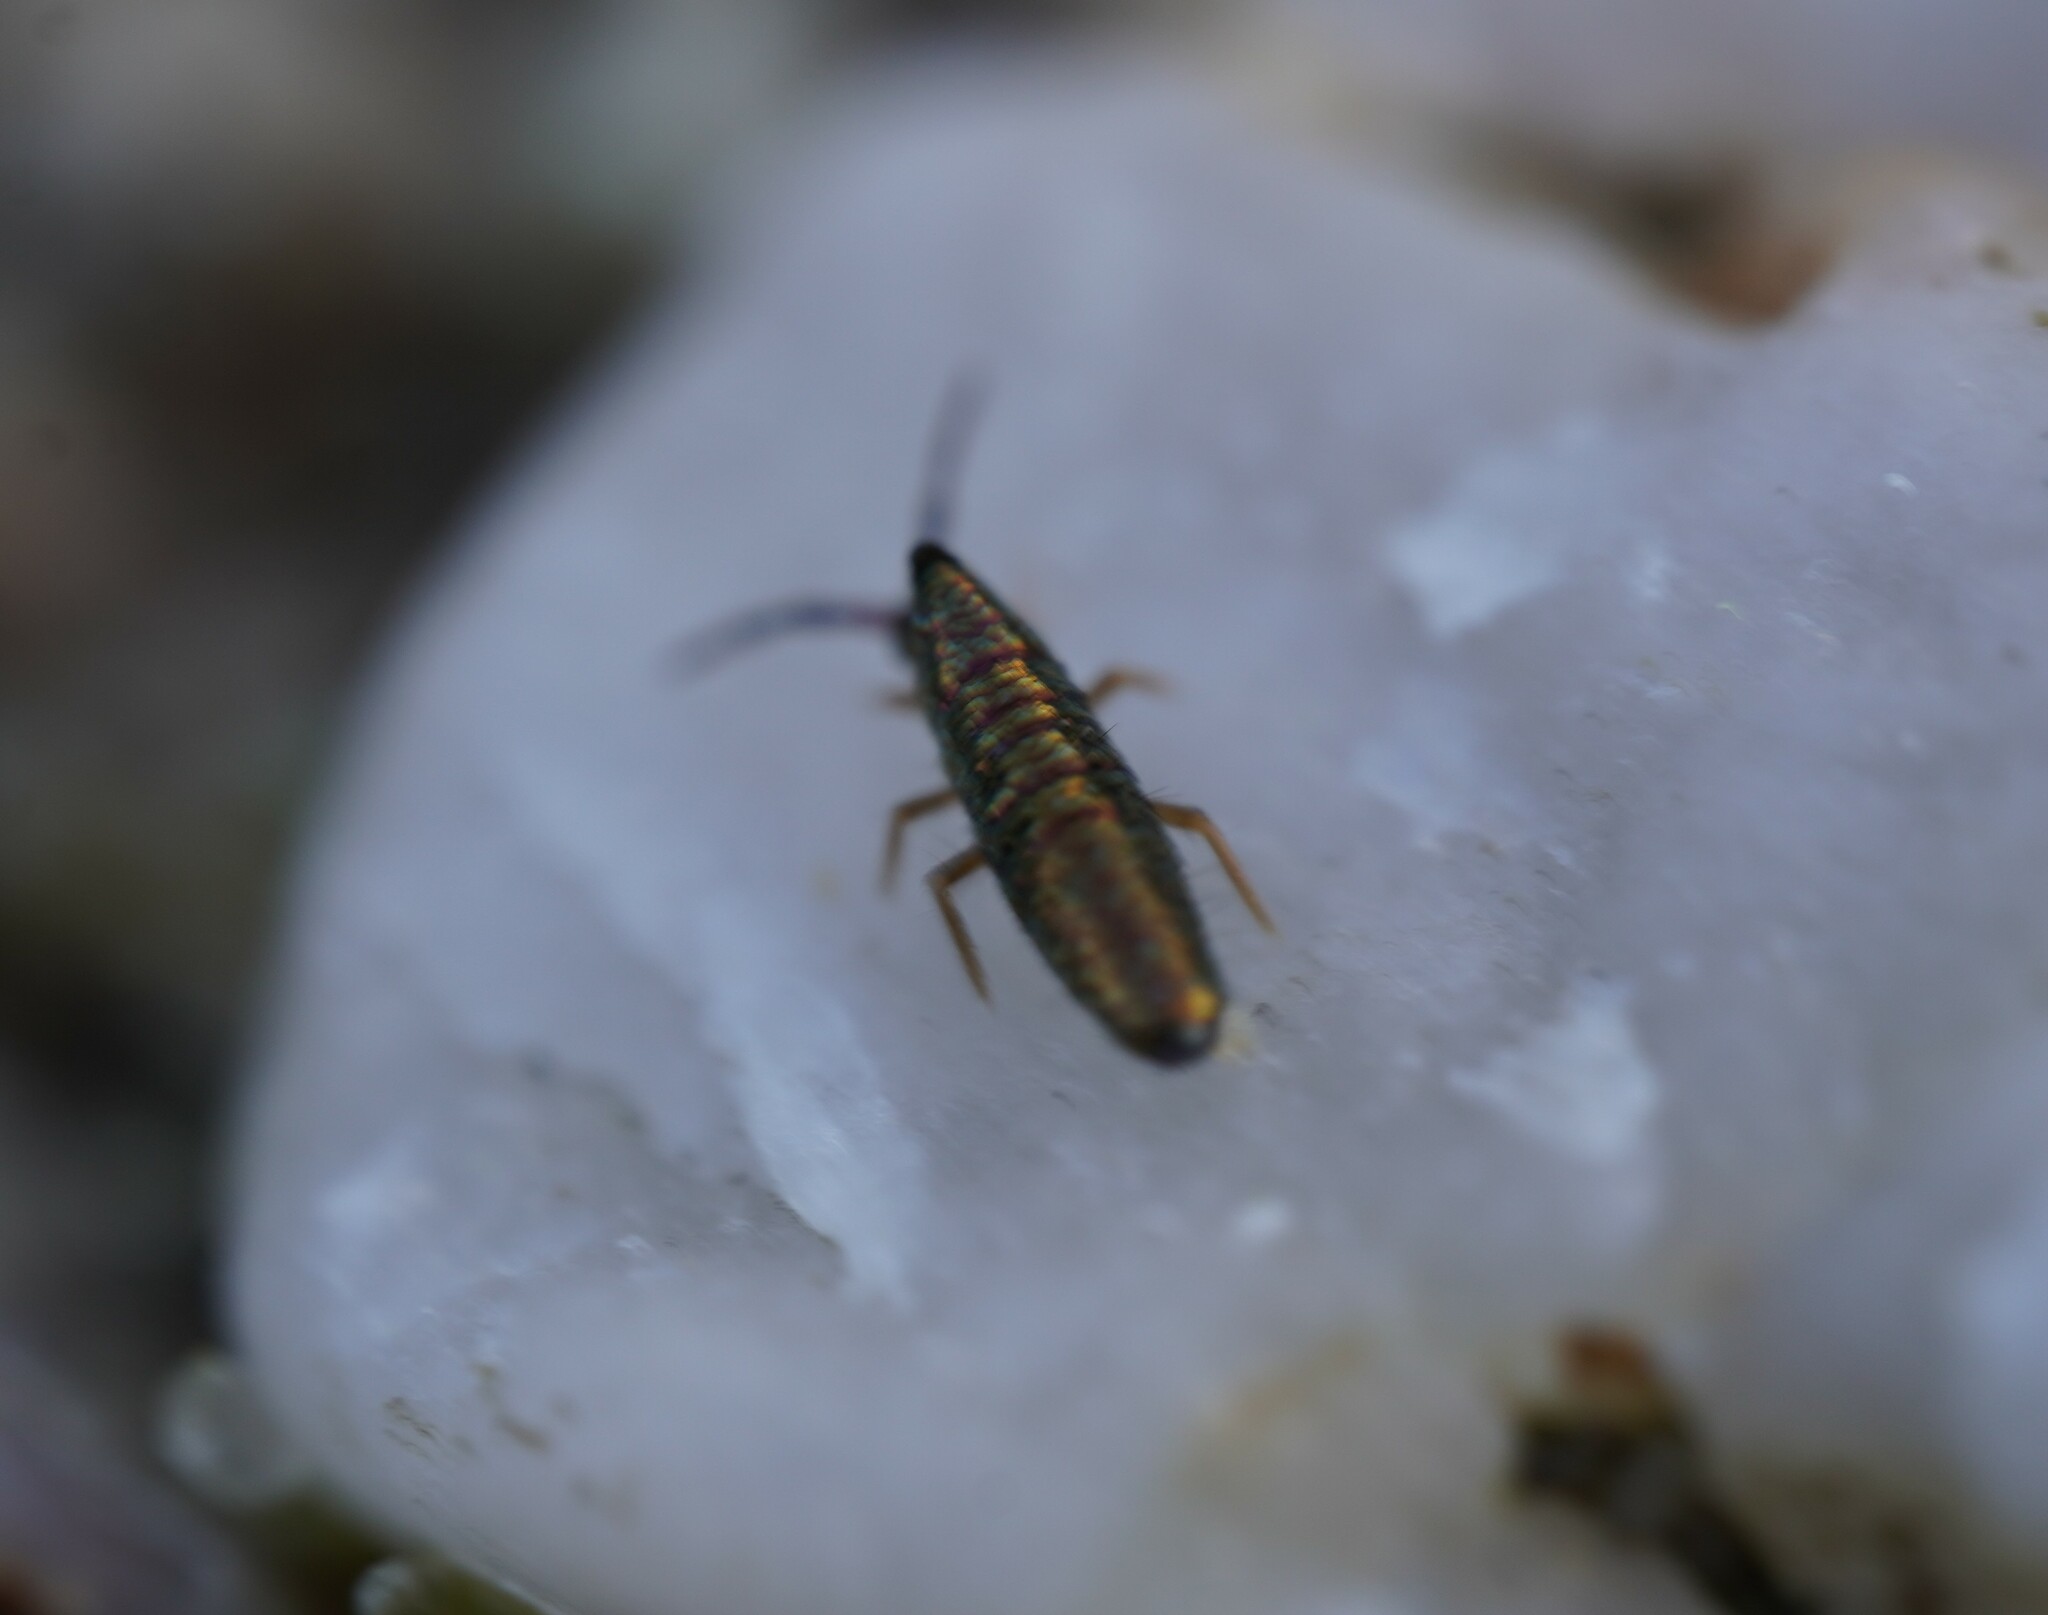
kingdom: Animalia
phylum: Arthropoda
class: Collembola
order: Entomobryomorpha
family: Entomobryidae
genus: Lepidocyrtus
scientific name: Lepidocyrtus paradoxus
